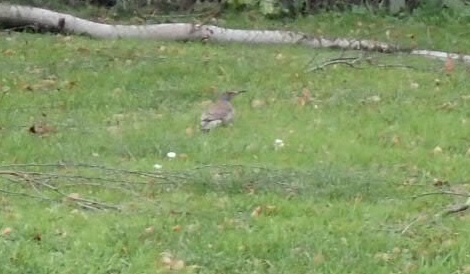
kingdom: Animalia
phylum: Chordata
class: Aves
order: Piciformes
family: Picidae
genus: Colaptes
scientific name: Colaptes auratus
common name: Northern flicker
